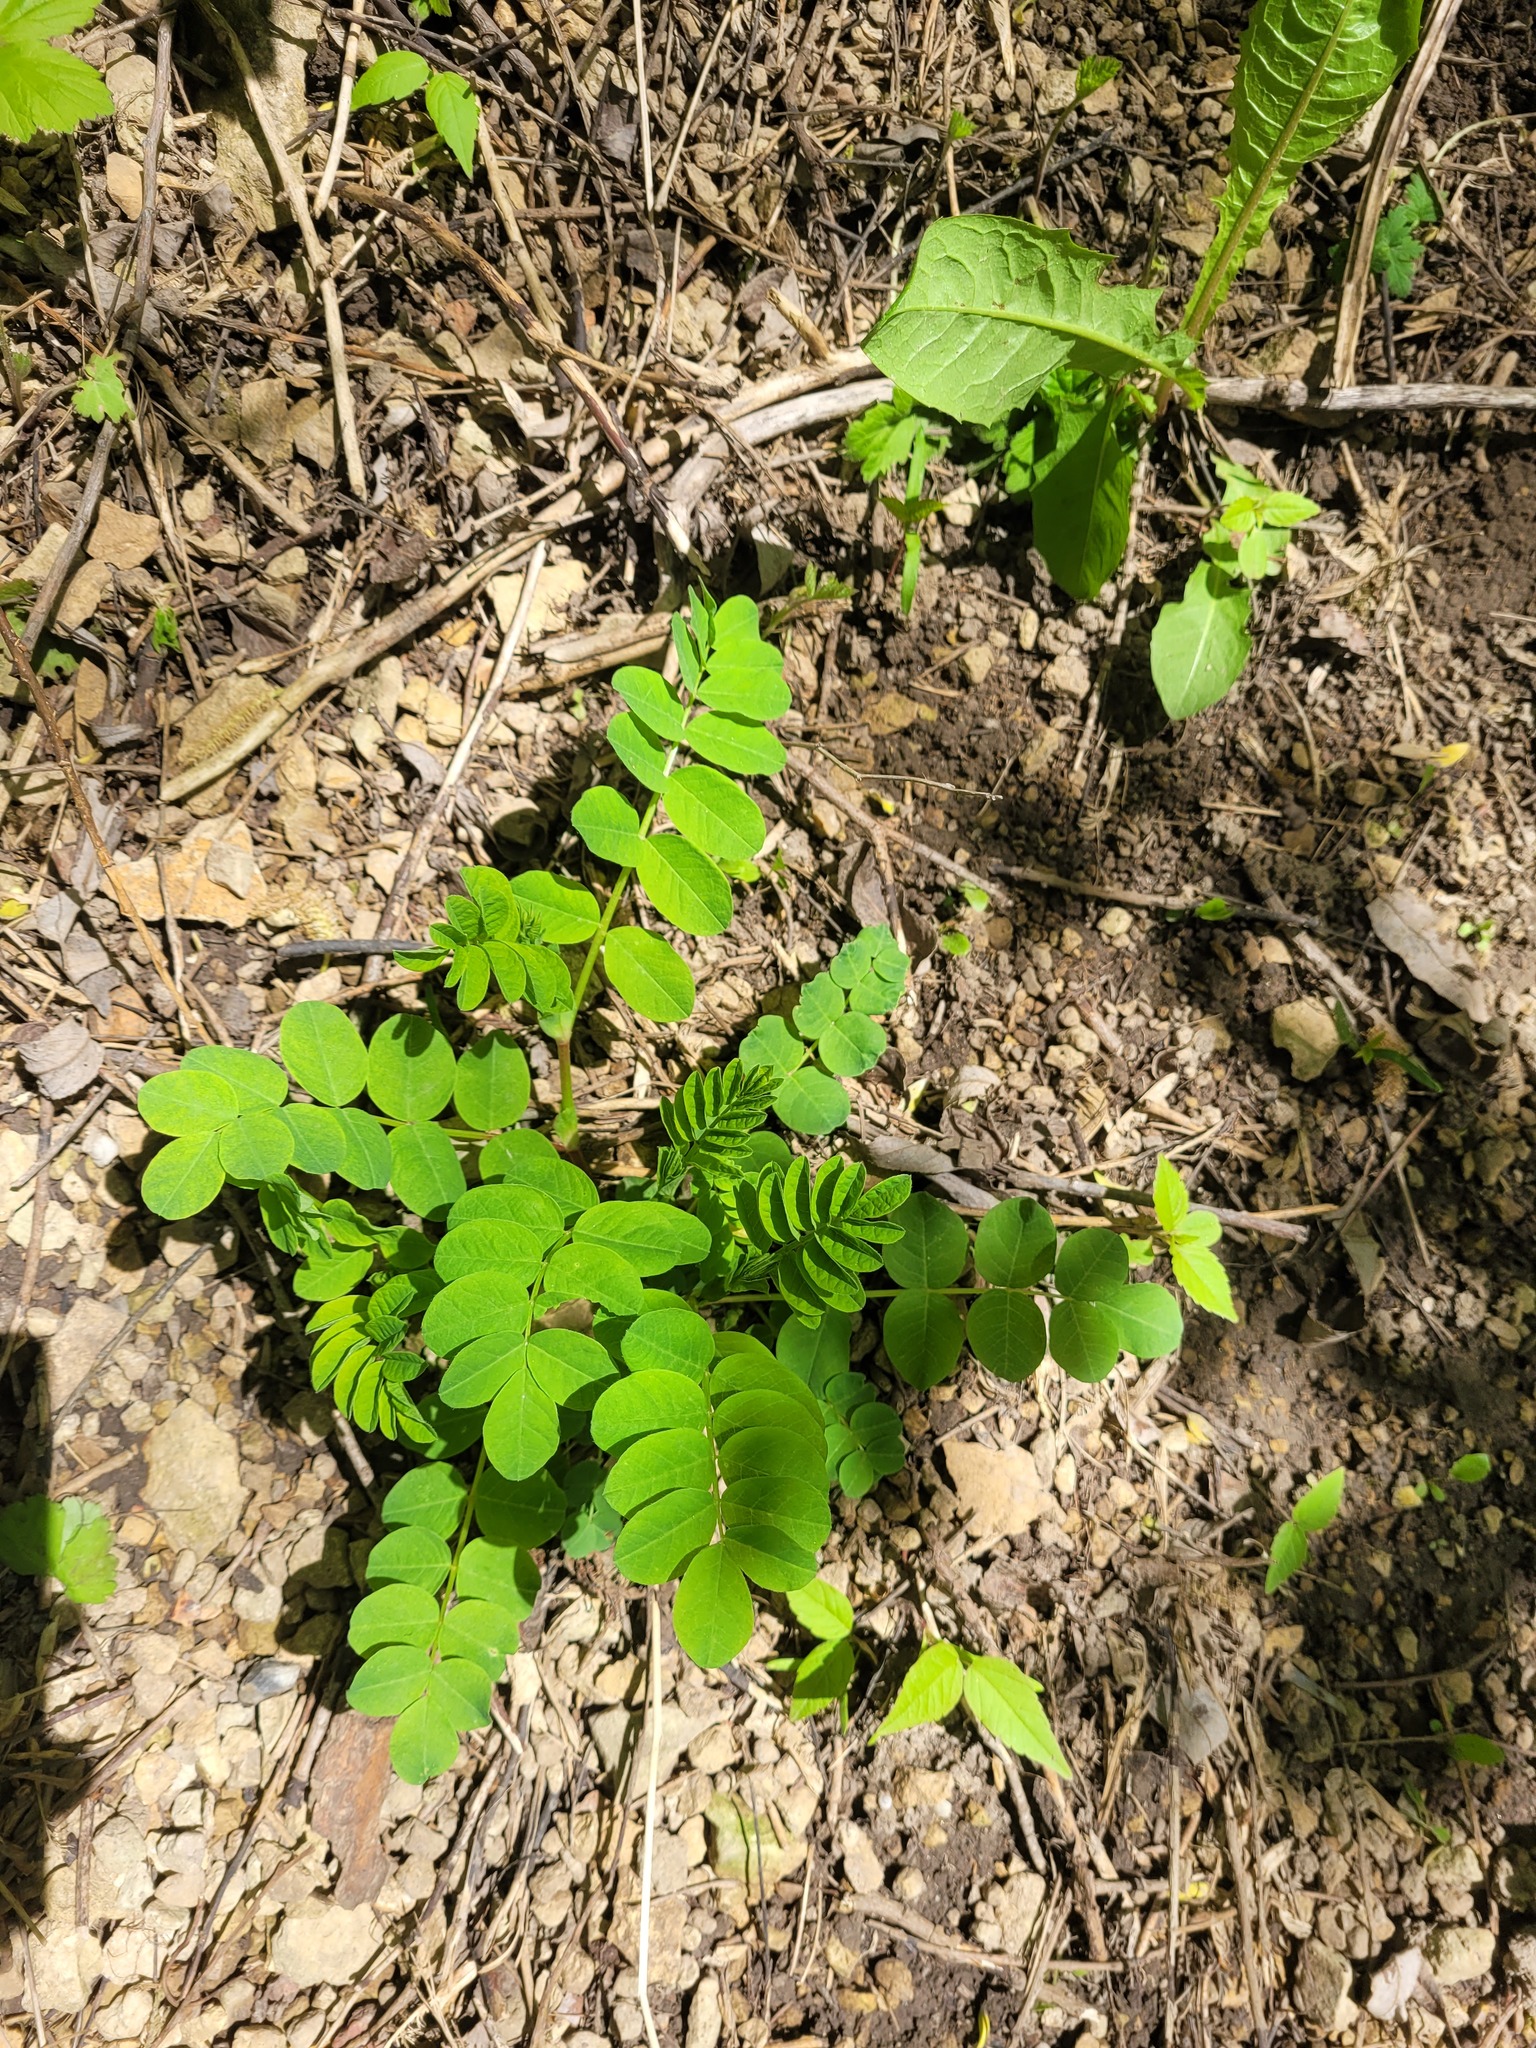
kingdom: Plantae
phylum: Tracheophyta
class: Magnoliopsida
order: Fabales
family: Fabaceae
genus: Astragalus
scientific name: Astragalus glycyphyllos
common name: Wild liquorice
